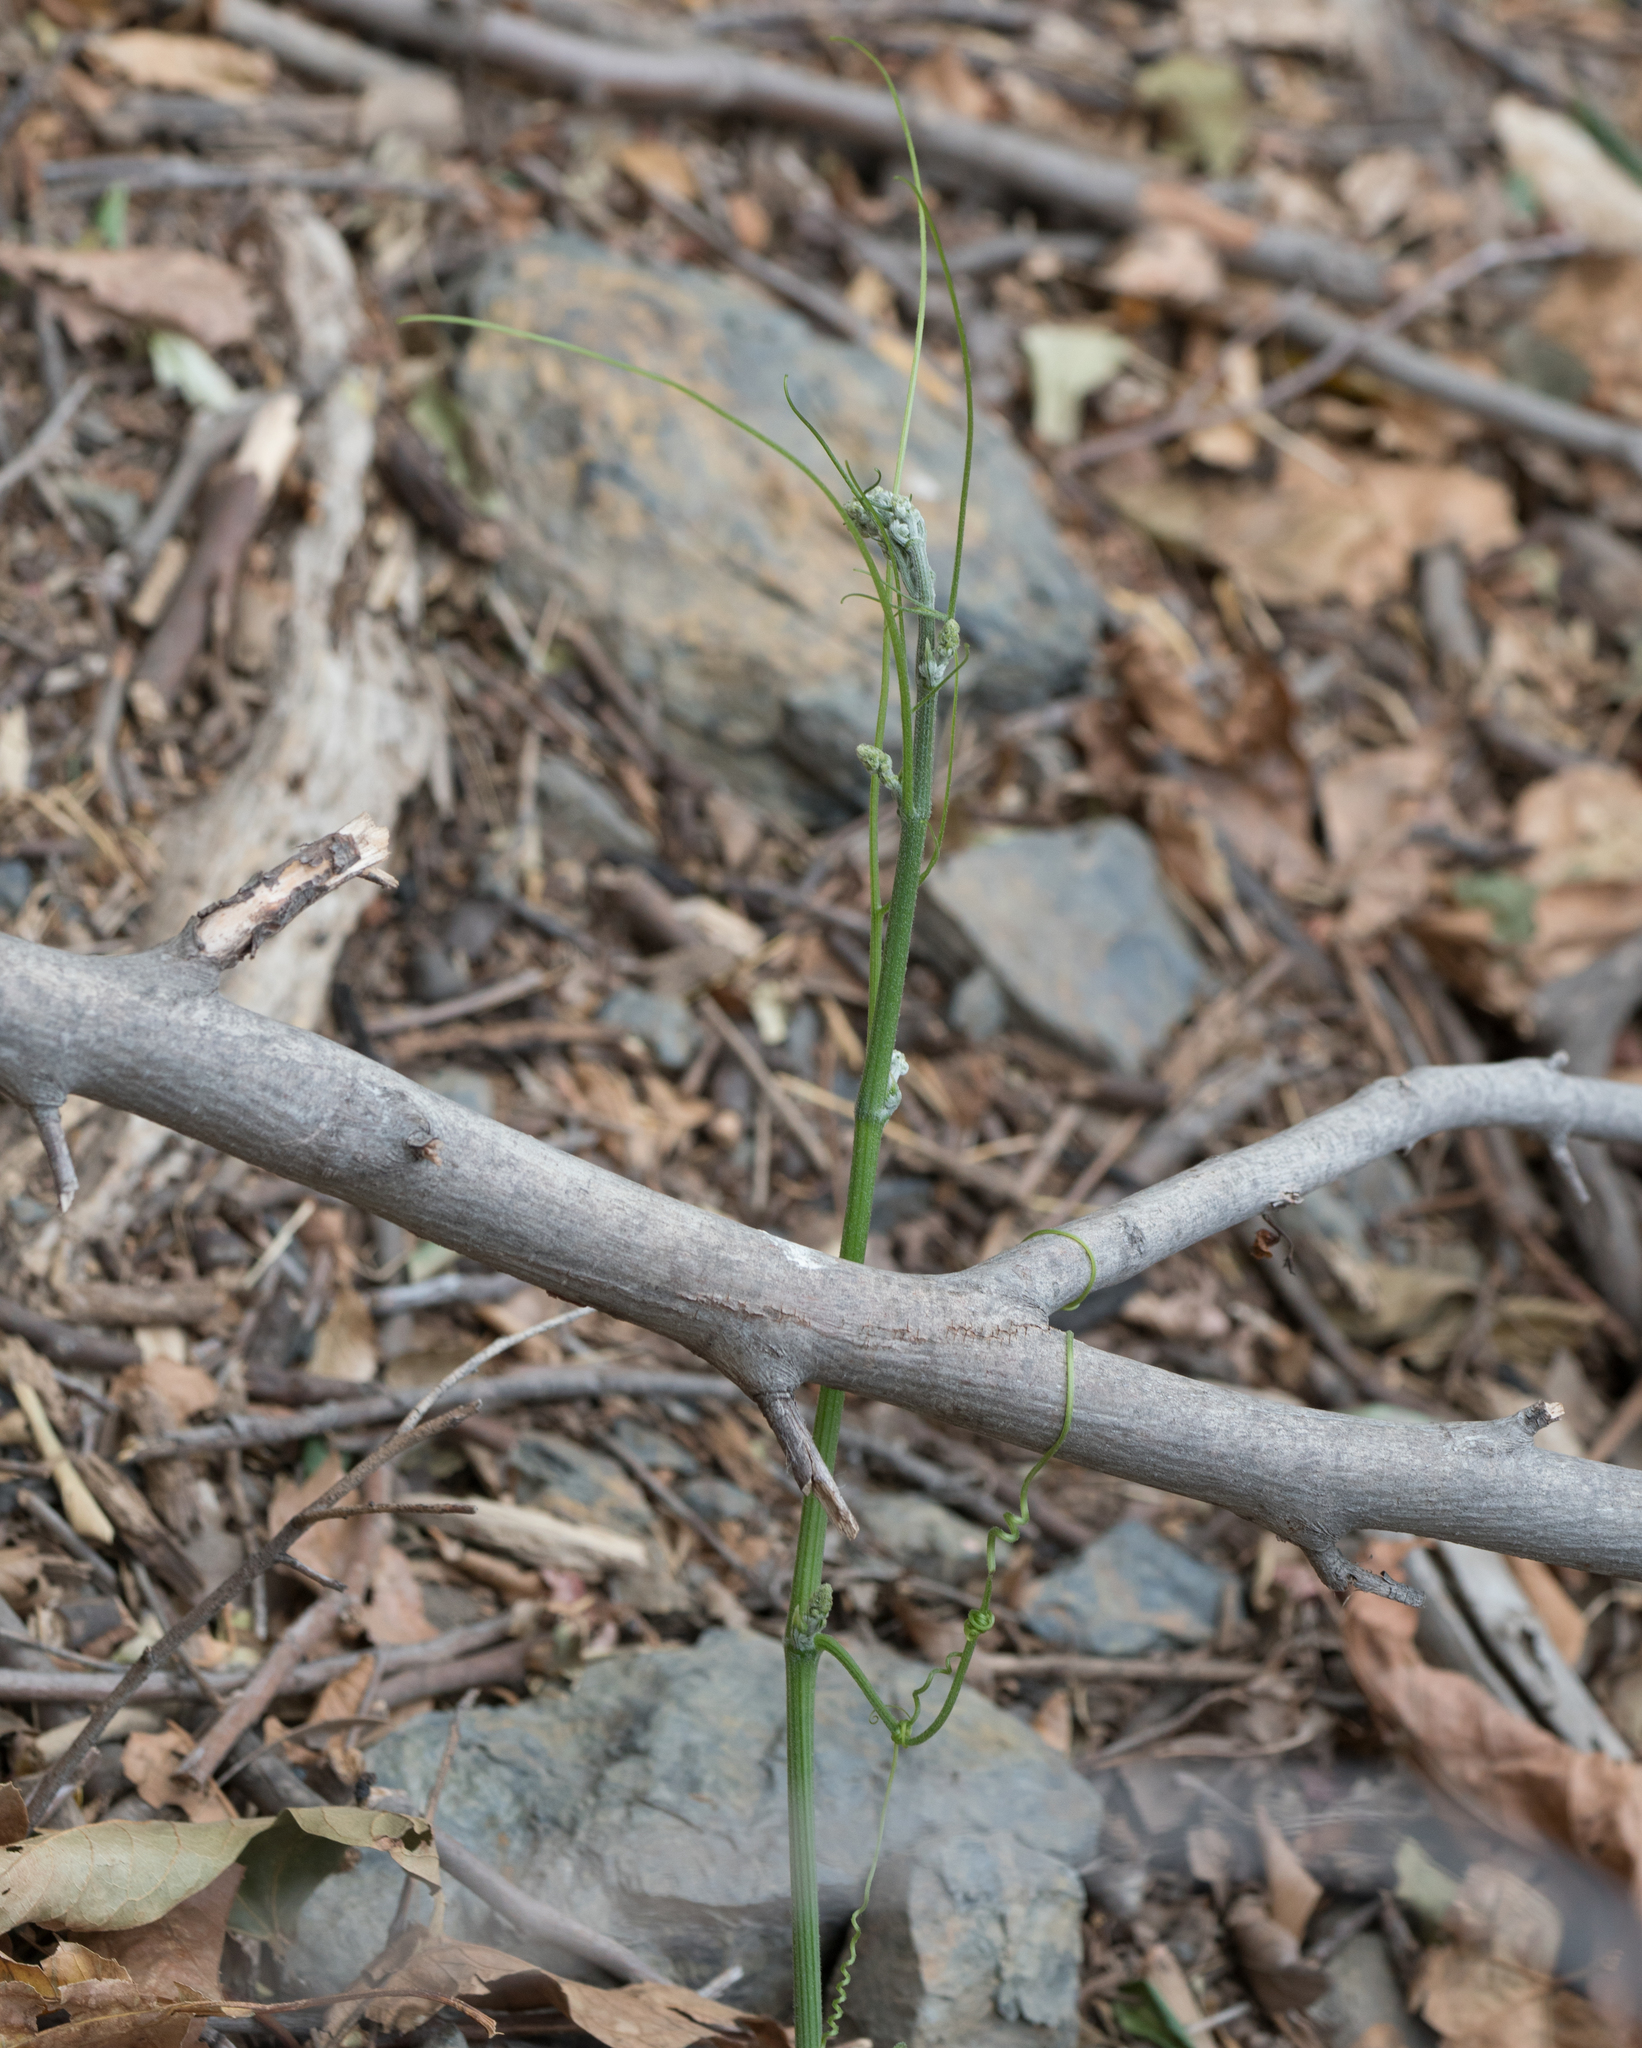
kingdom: Plantae
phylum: Tracheophyta
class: Magnoliopsida
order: Cucurbitales
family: Cucurbitaceae
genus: Marah
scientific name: Marah macrocarpa
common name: Cucamonga manroot
